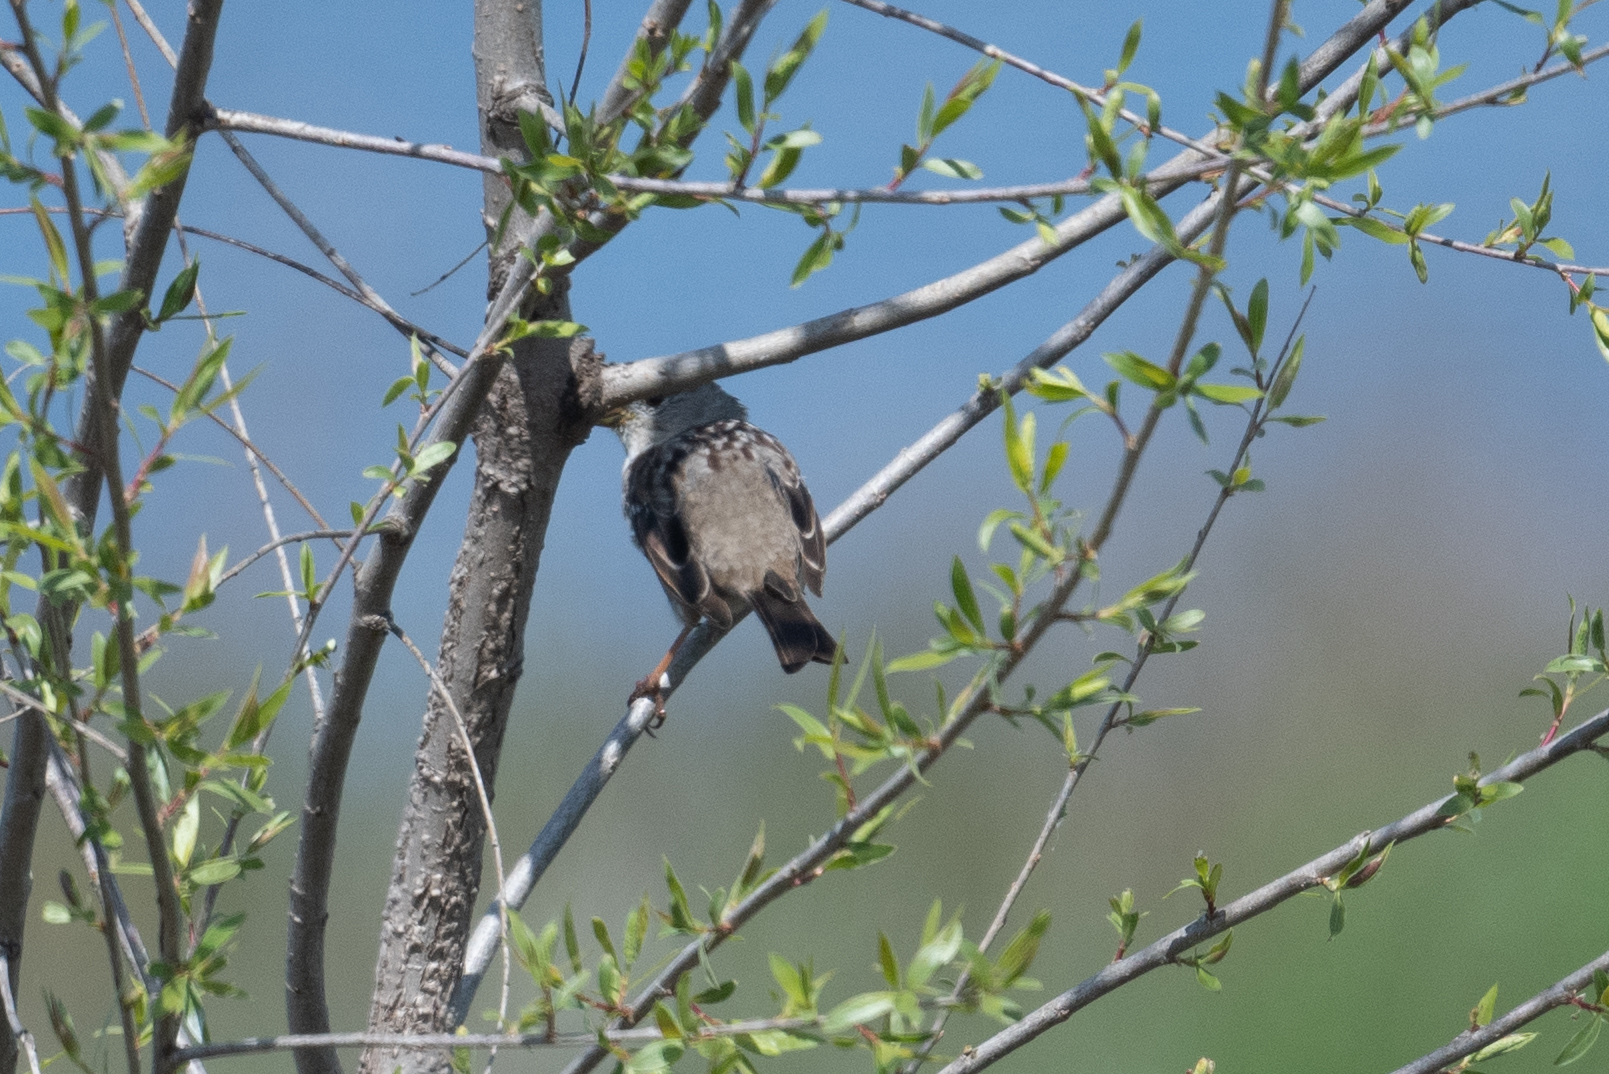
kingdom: Animalia
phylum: Chordata
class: Aves
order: Passeriformes
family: Passerellidae
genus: Zonotrichia
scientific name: Zonotrichia leucophrys
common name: White-crowned sparrow
